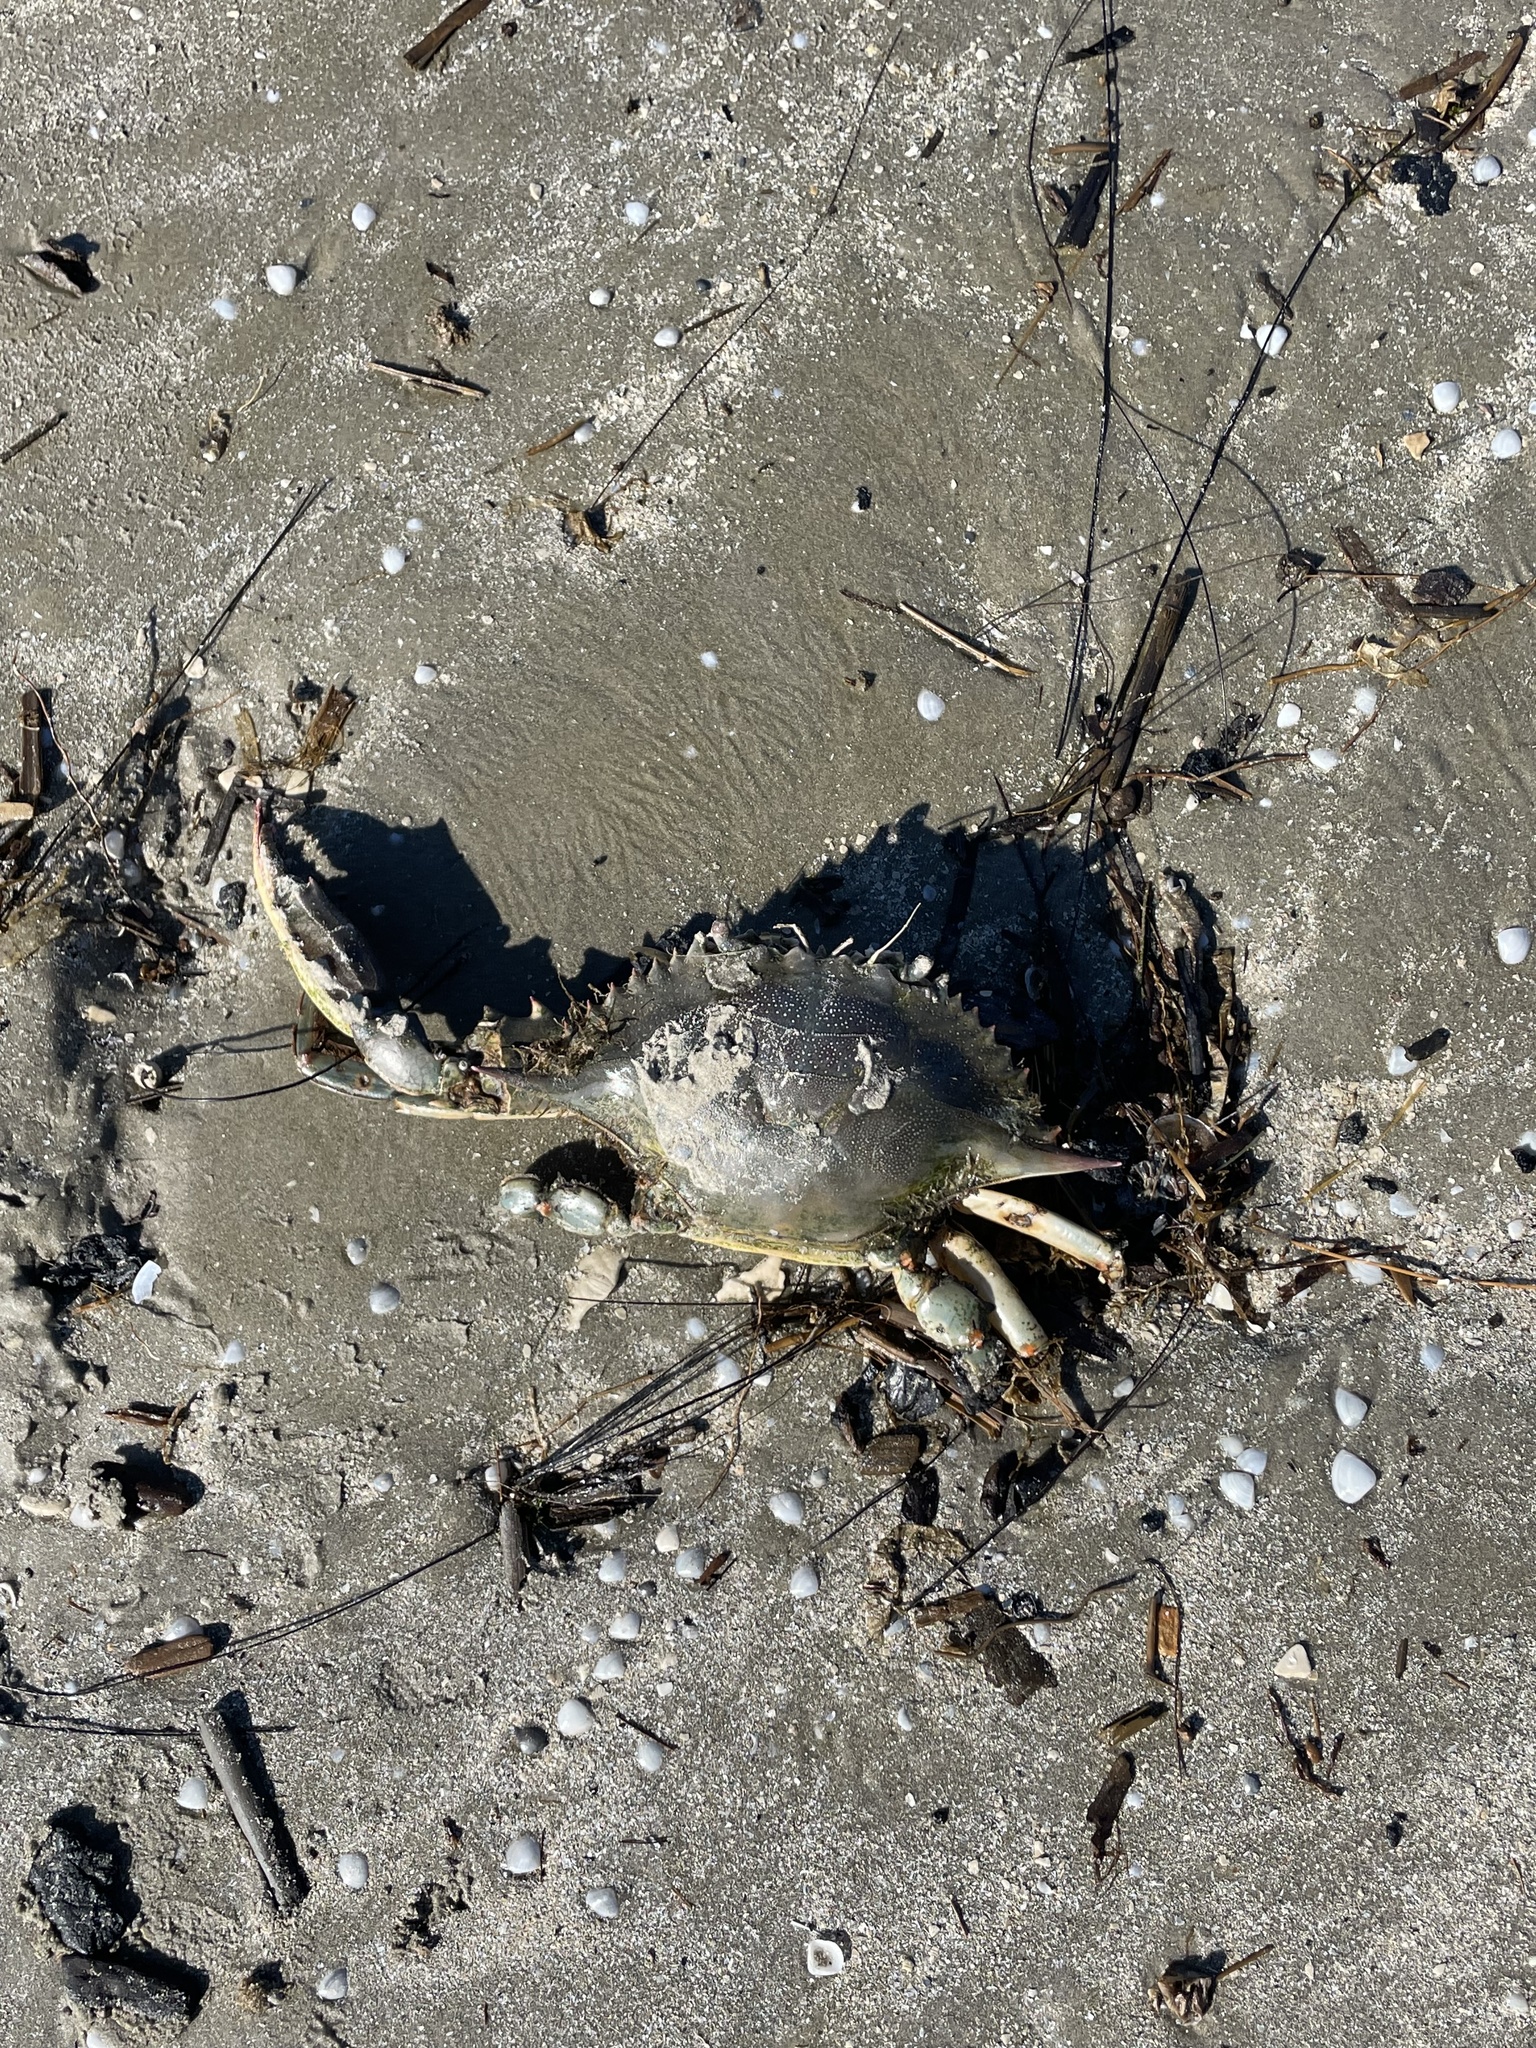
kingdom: Animalia
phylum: Arthropoda
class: Malacostraca
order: Decapoda
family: Portunidae
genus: Callinectes
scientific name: Callinectes sapidus
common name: Blue crab
